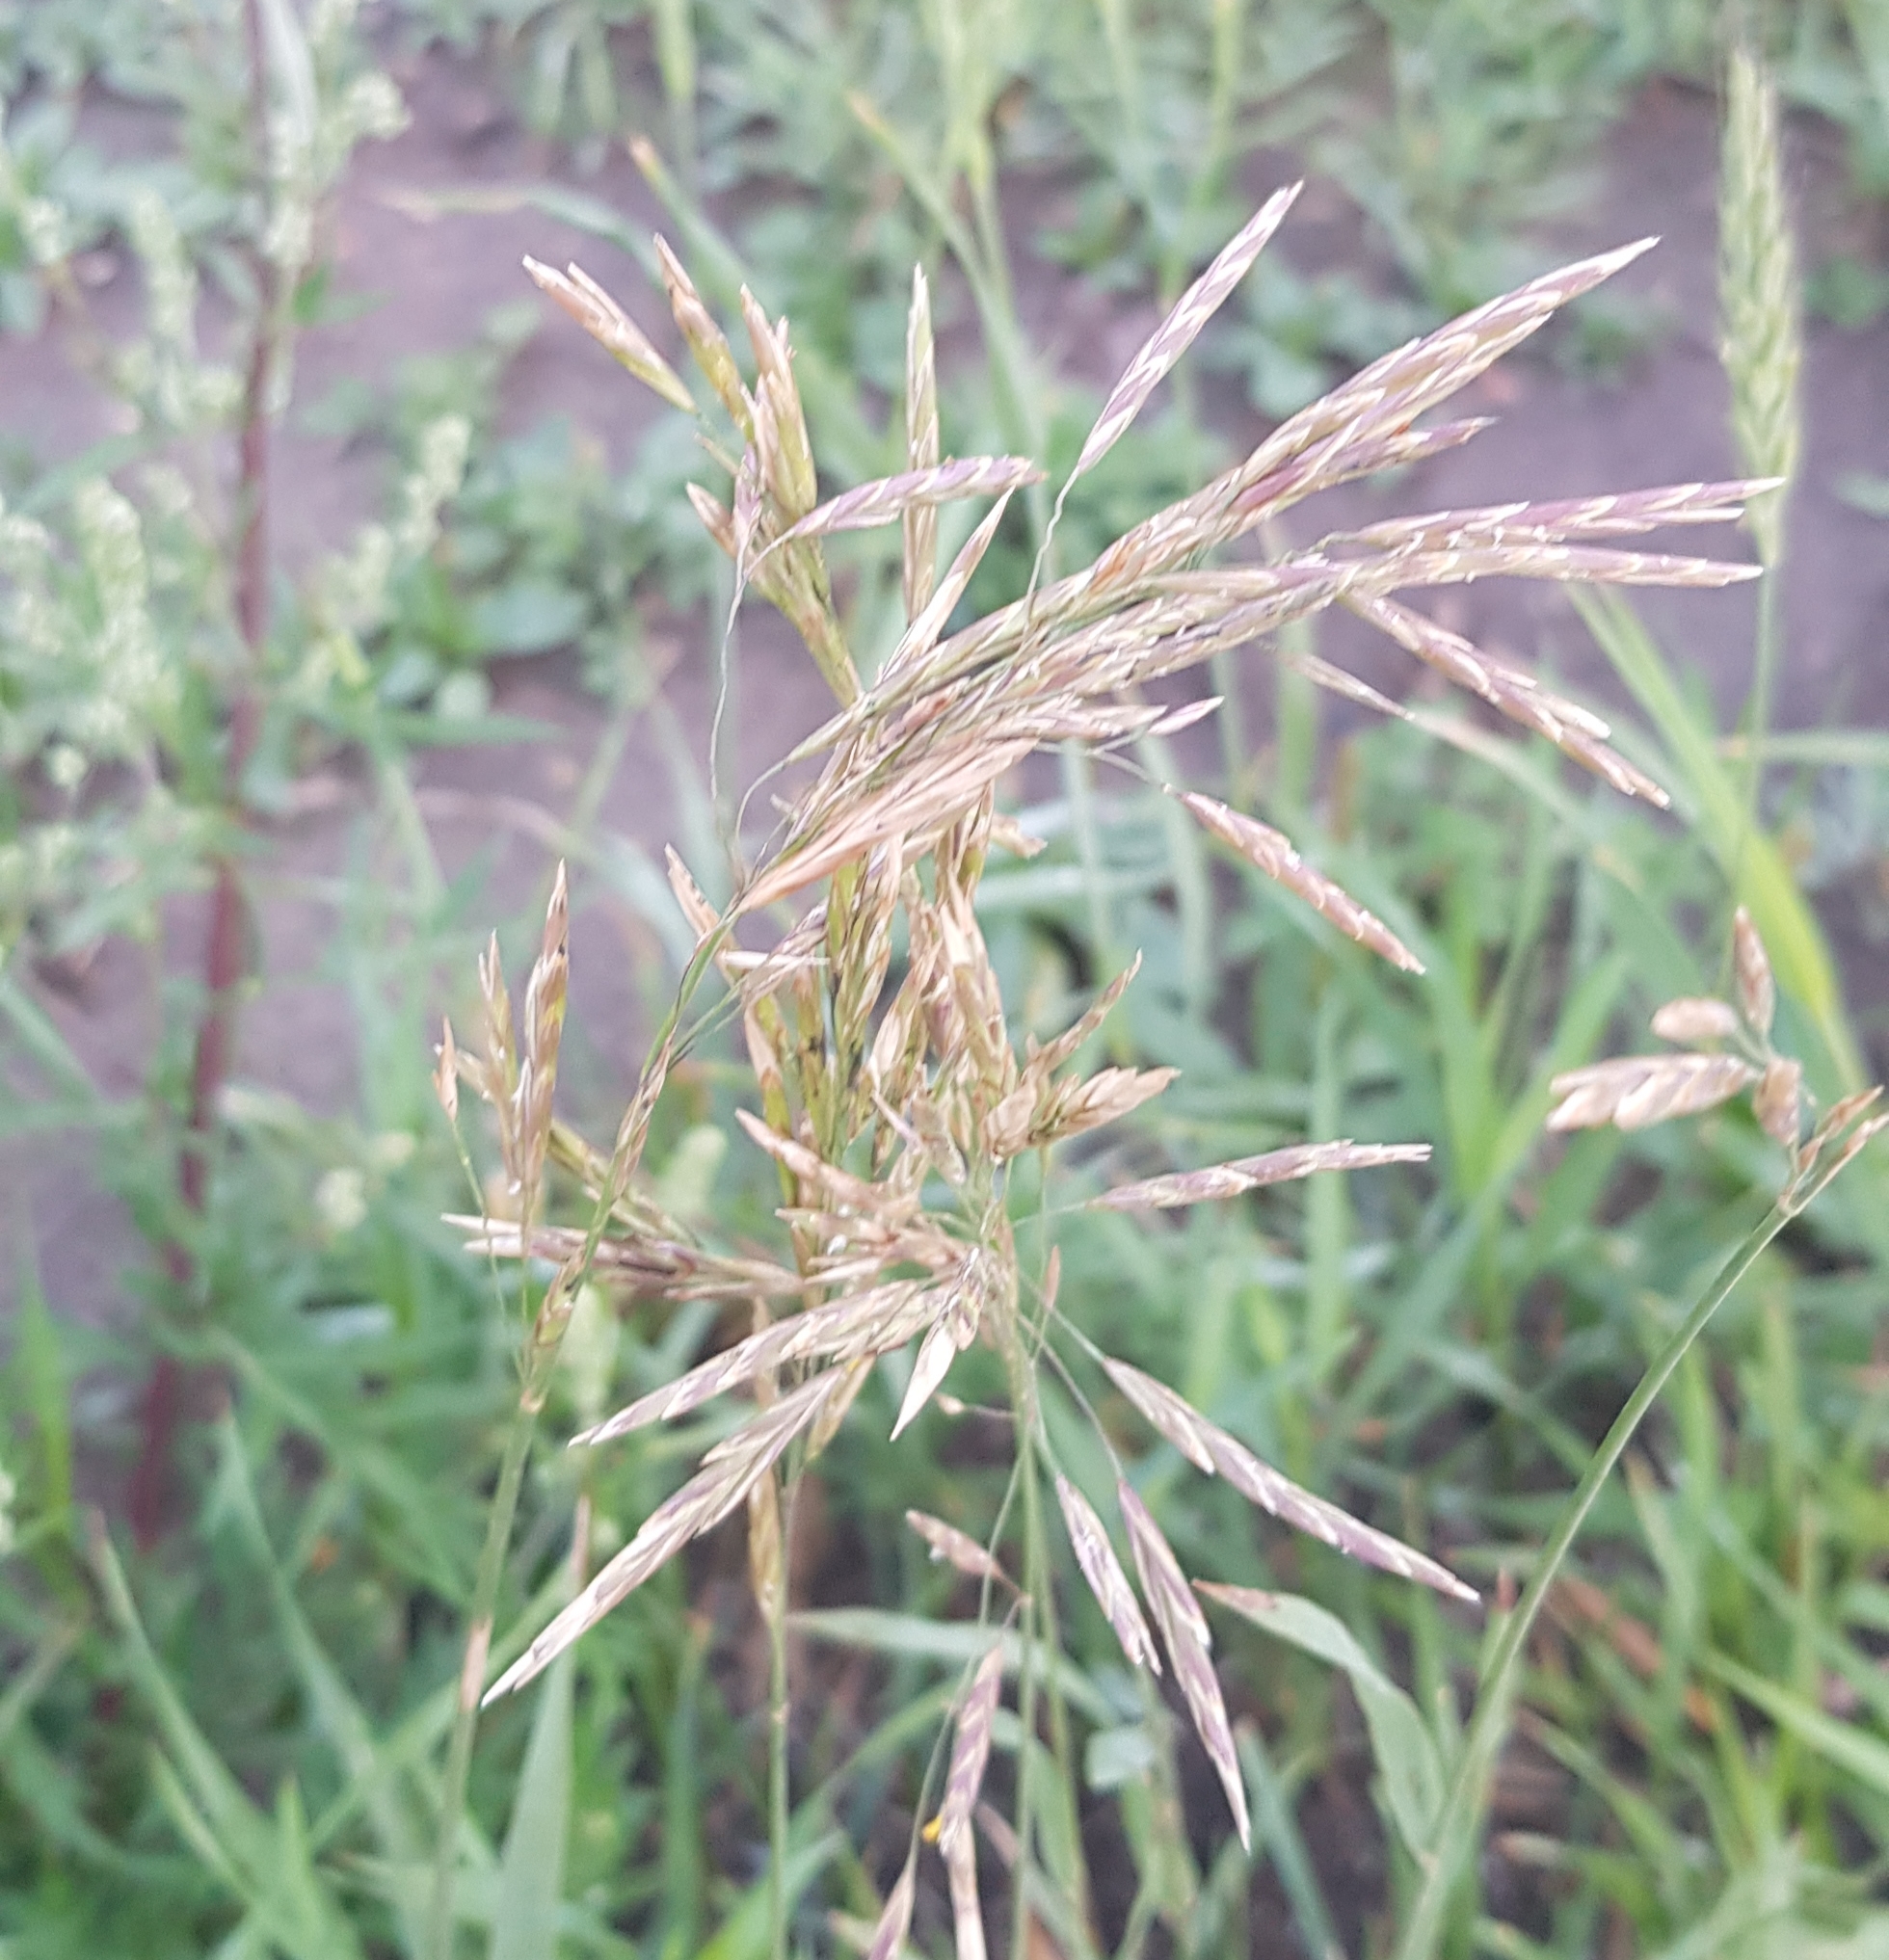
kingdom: Plantae
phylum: Tracheophyta
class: Liliopsida
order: Poales
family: Poaceae
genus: Bromus
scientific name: Bromus inermis
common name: Smooth brome
